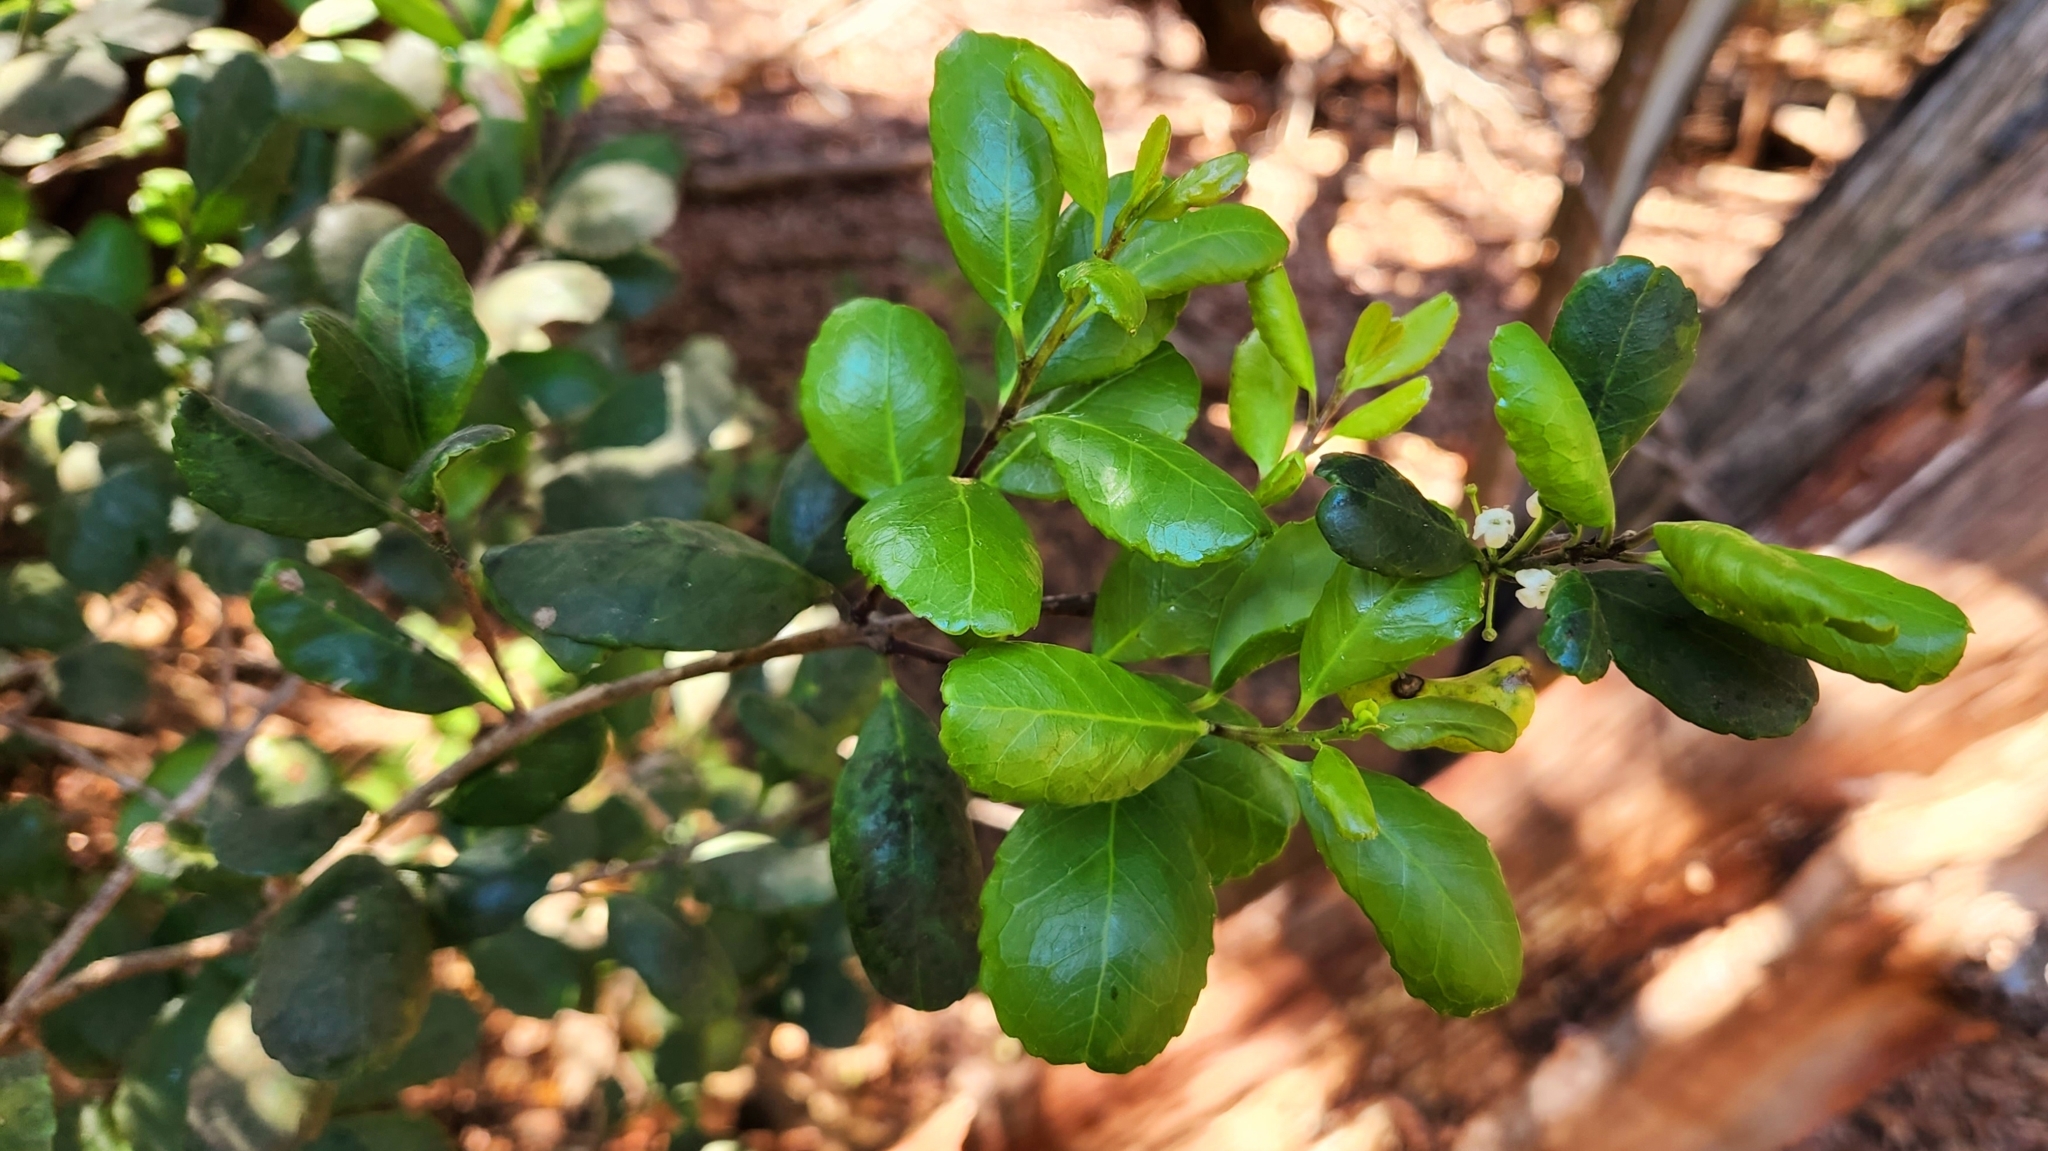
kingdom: Plantae
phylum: Tracheophyta
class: Magnoliopsida
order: Aquifoliales
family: Aquifoliaceae
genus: Ilex
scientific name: Ilex socorroensis
